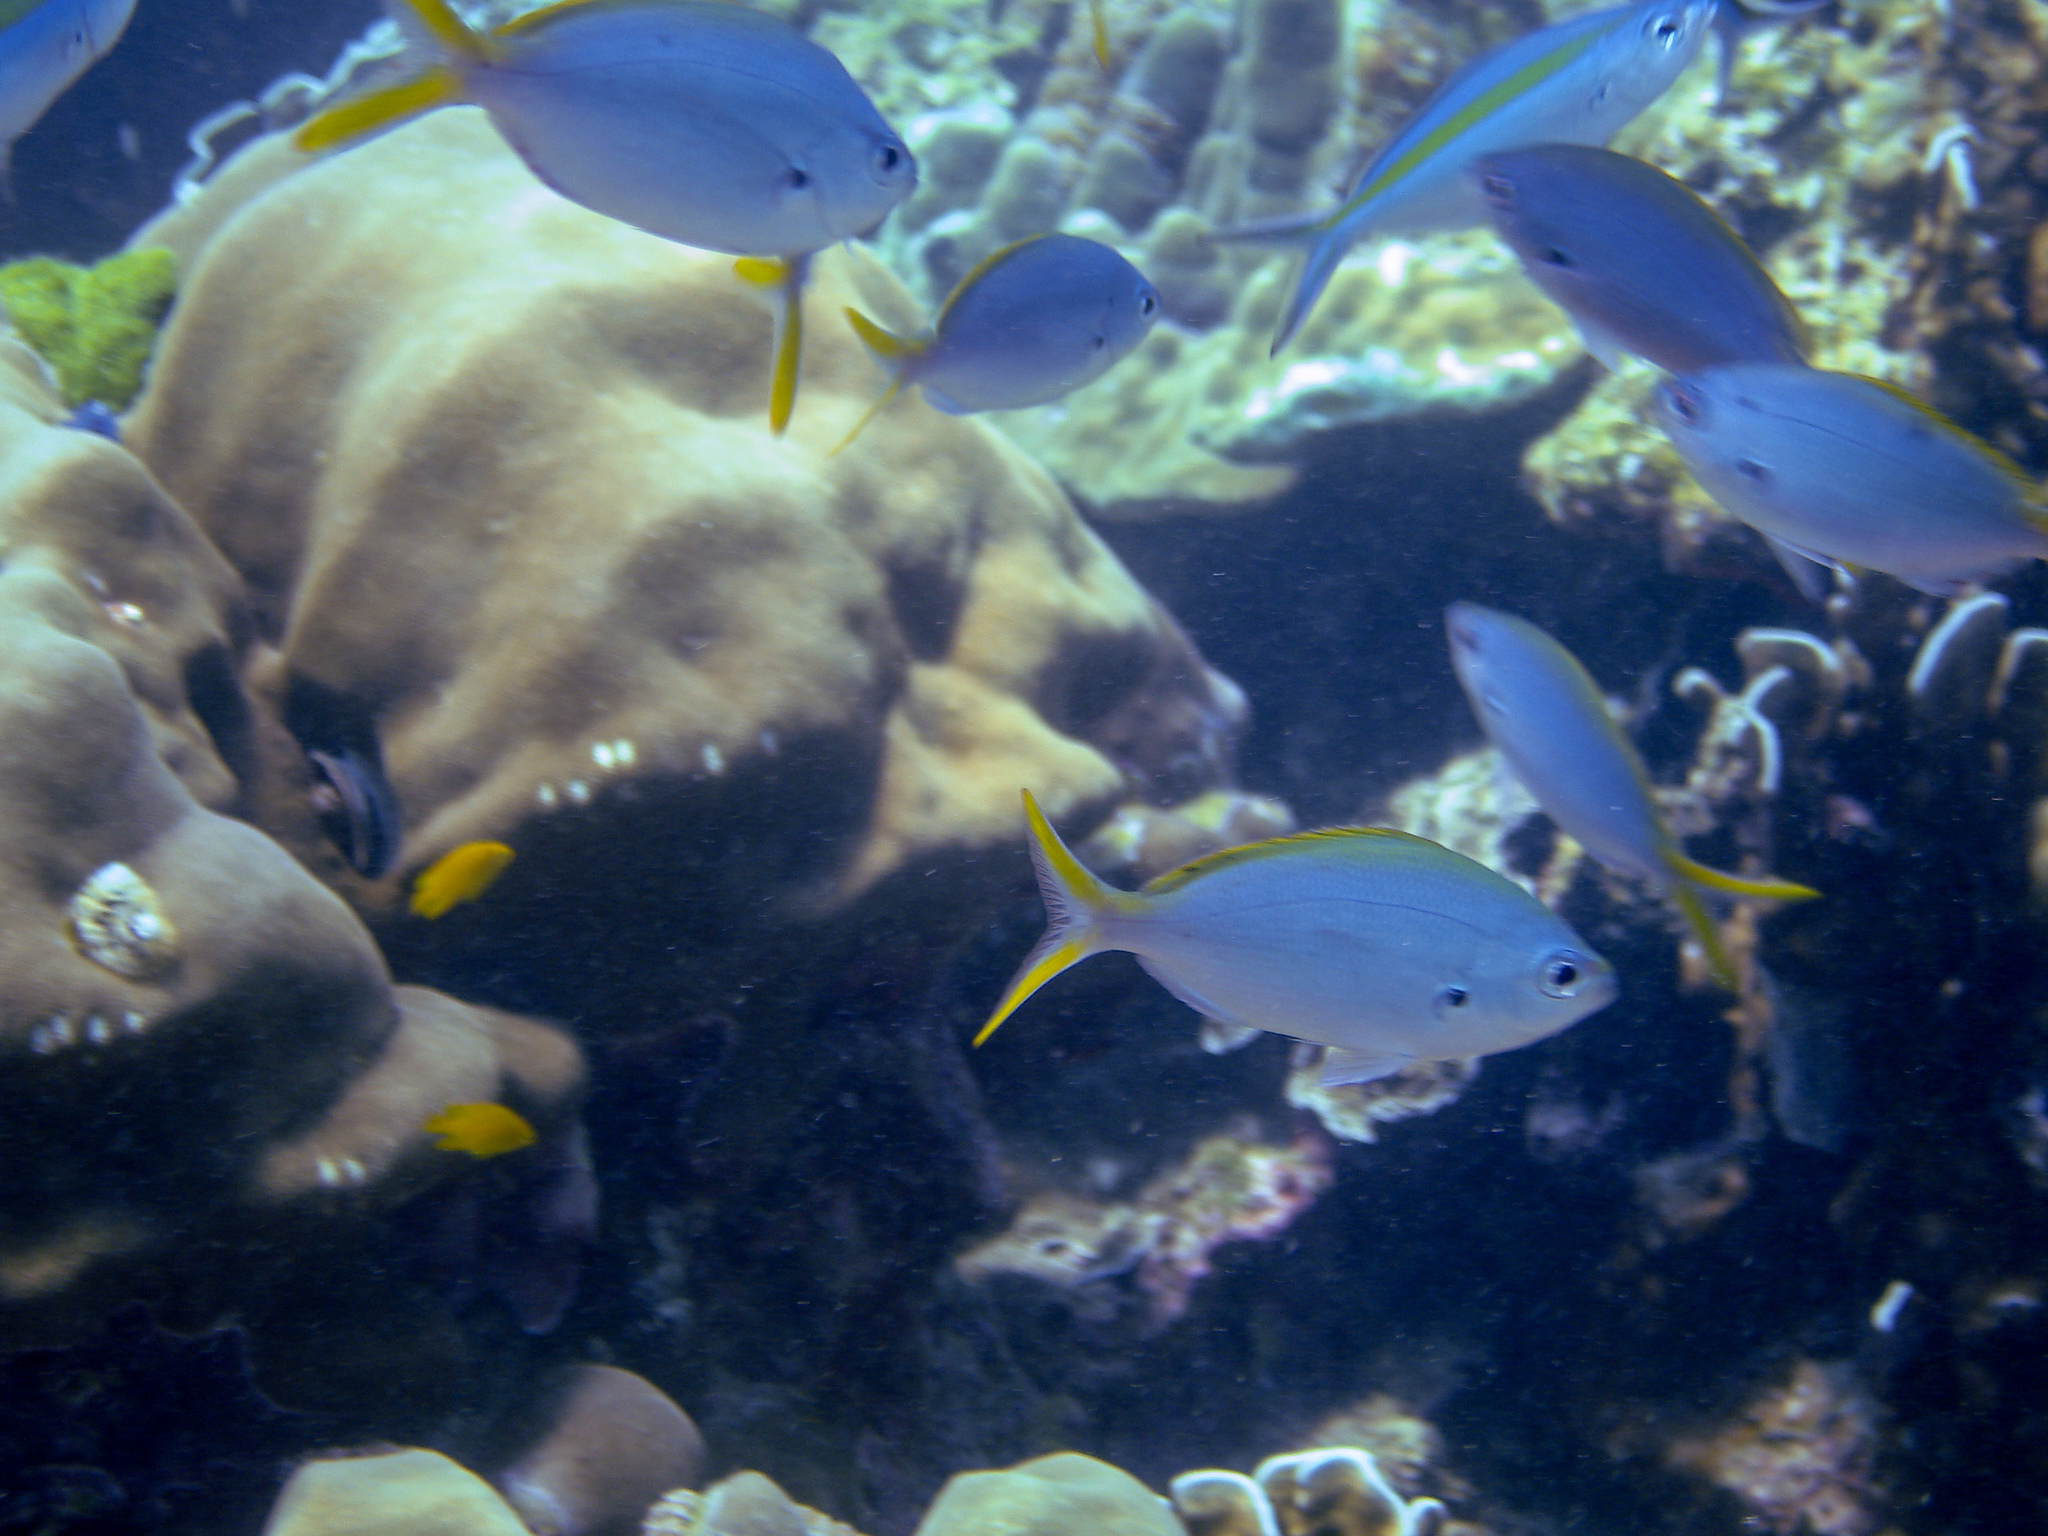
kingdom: Animalia
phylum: Chordata
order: Perciformes
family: Caesionidae
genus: Caesio
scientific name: Caesio cuning
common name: Red-bellied fusilier
